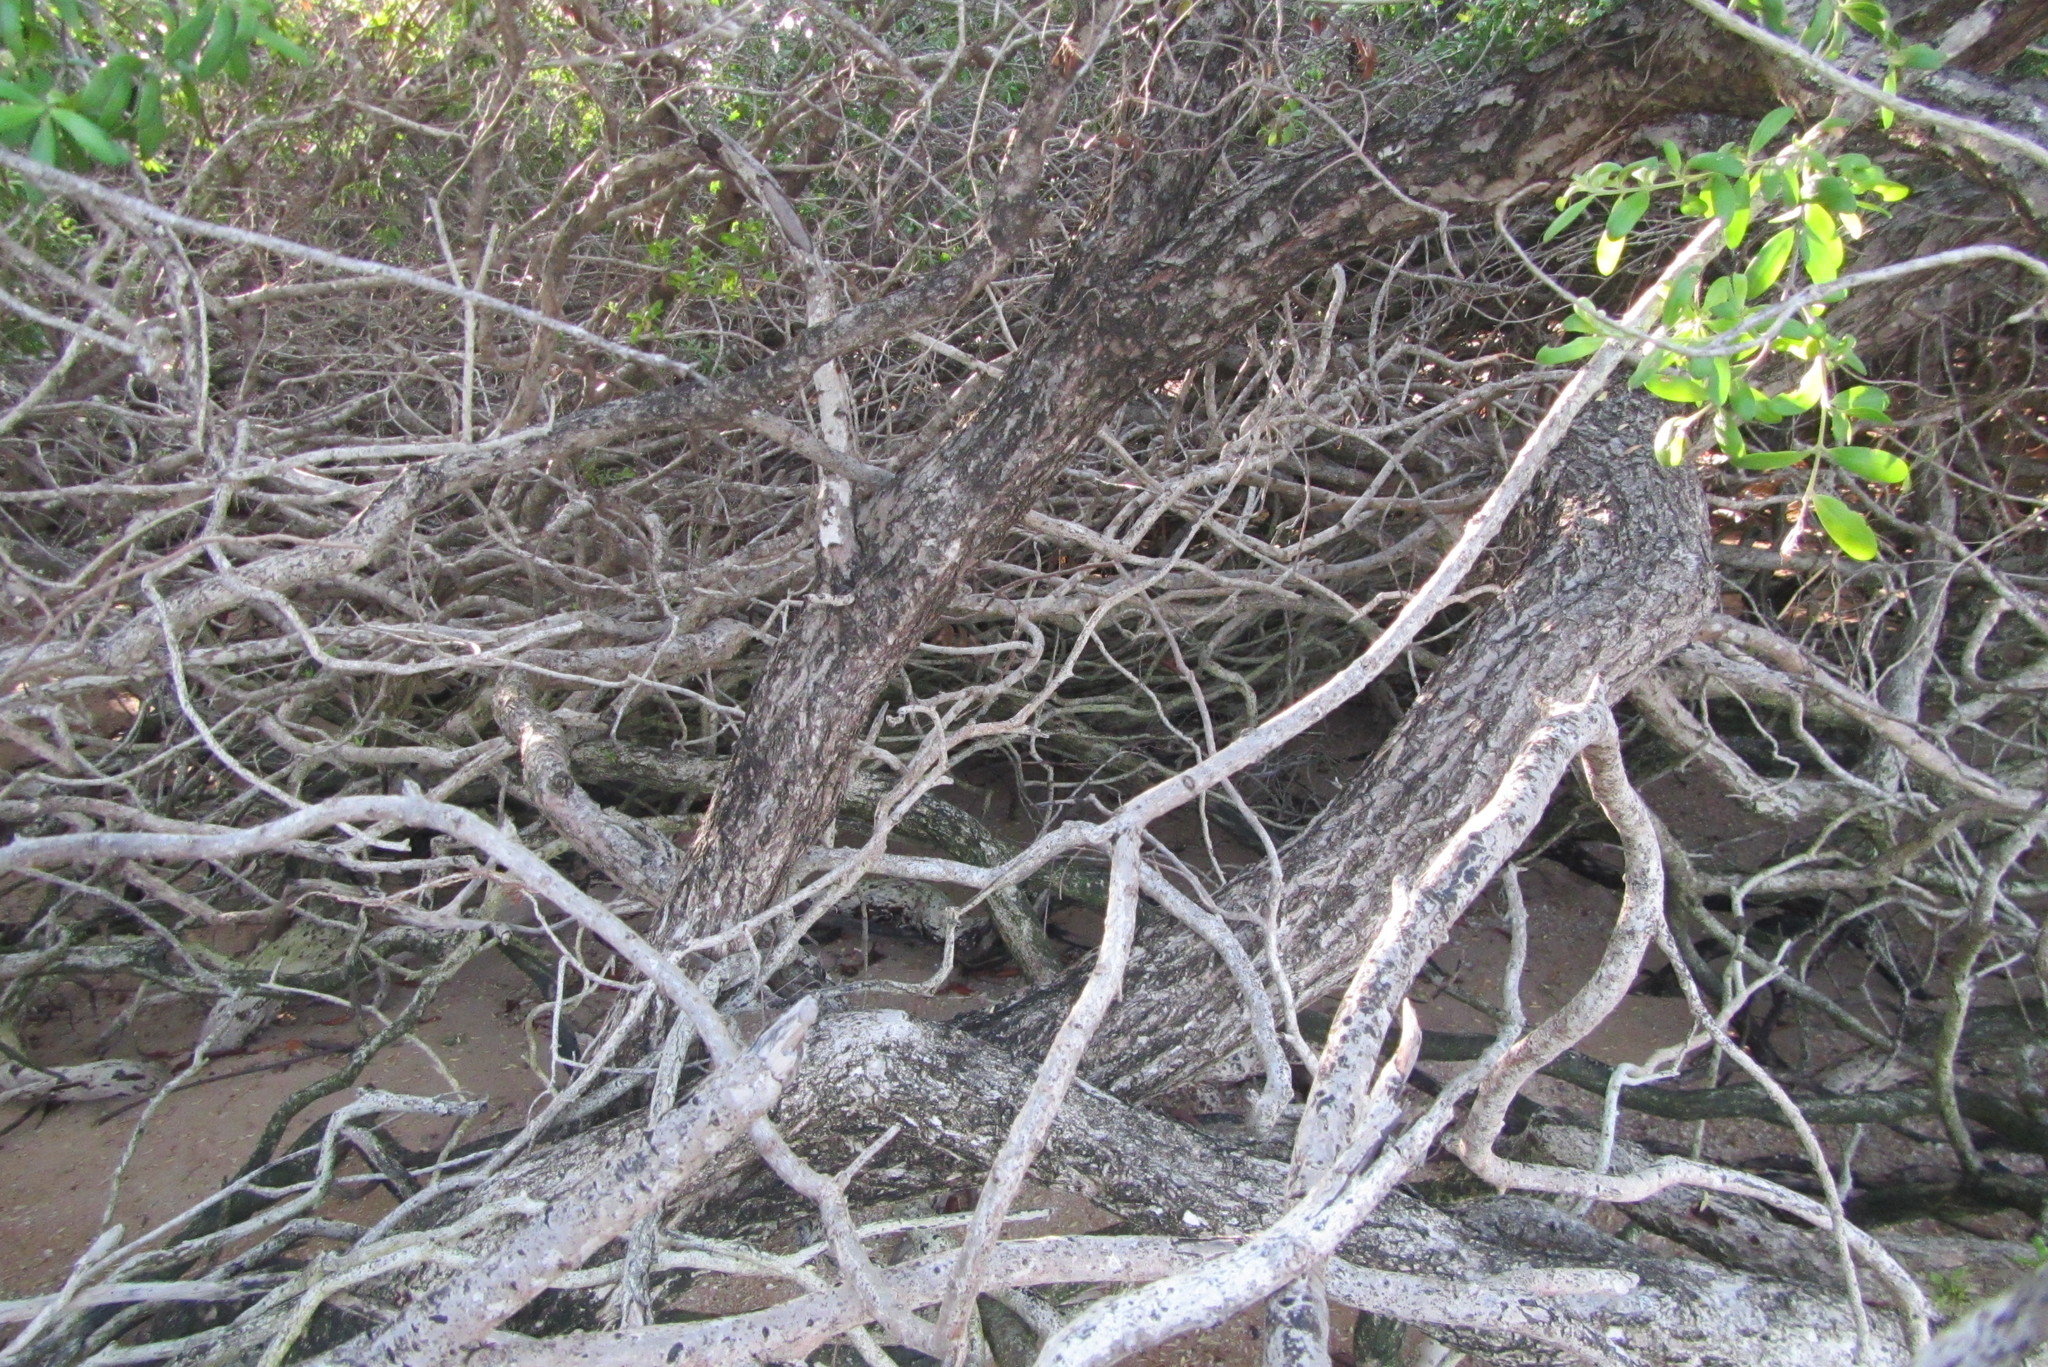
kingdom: Plantae
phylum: Tracheophyta
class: Magnoliopsida
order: Myrtales
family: Lythraceae
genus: Pemphis
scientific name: Pemphis acidula
